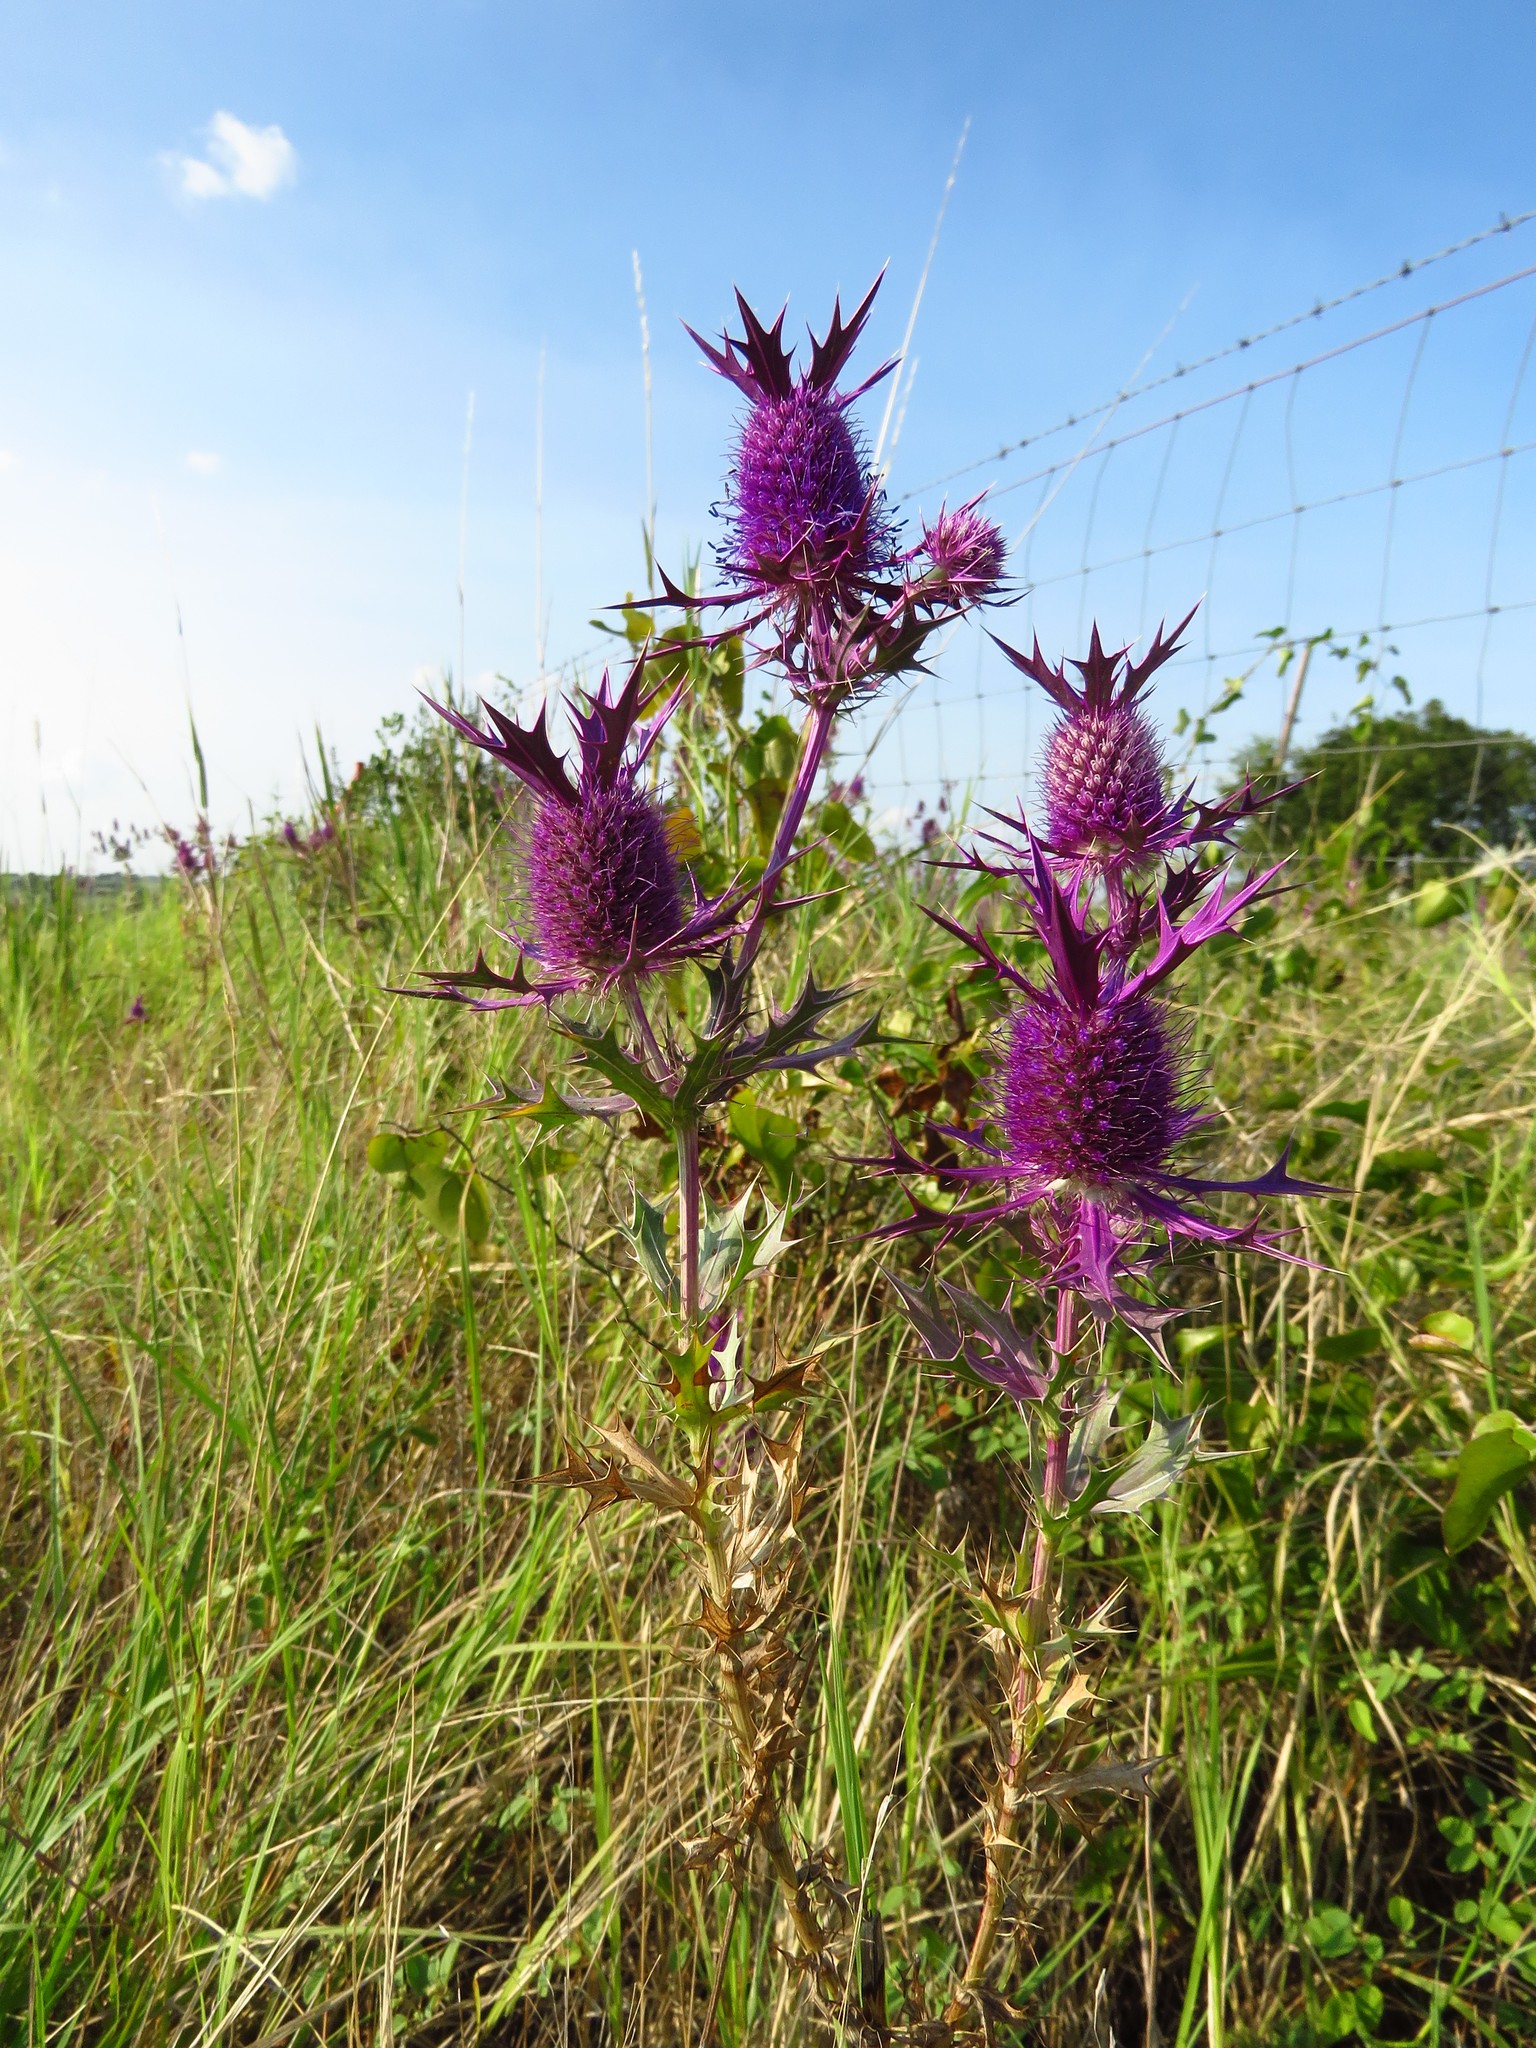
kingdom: Plantae
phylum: Tracheophyta
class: Magnoliopsida
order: Apiales
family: Apiaceae
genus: Eryngium
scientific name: Eryngium leavenworthii
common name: Leavenworth's eryngo
